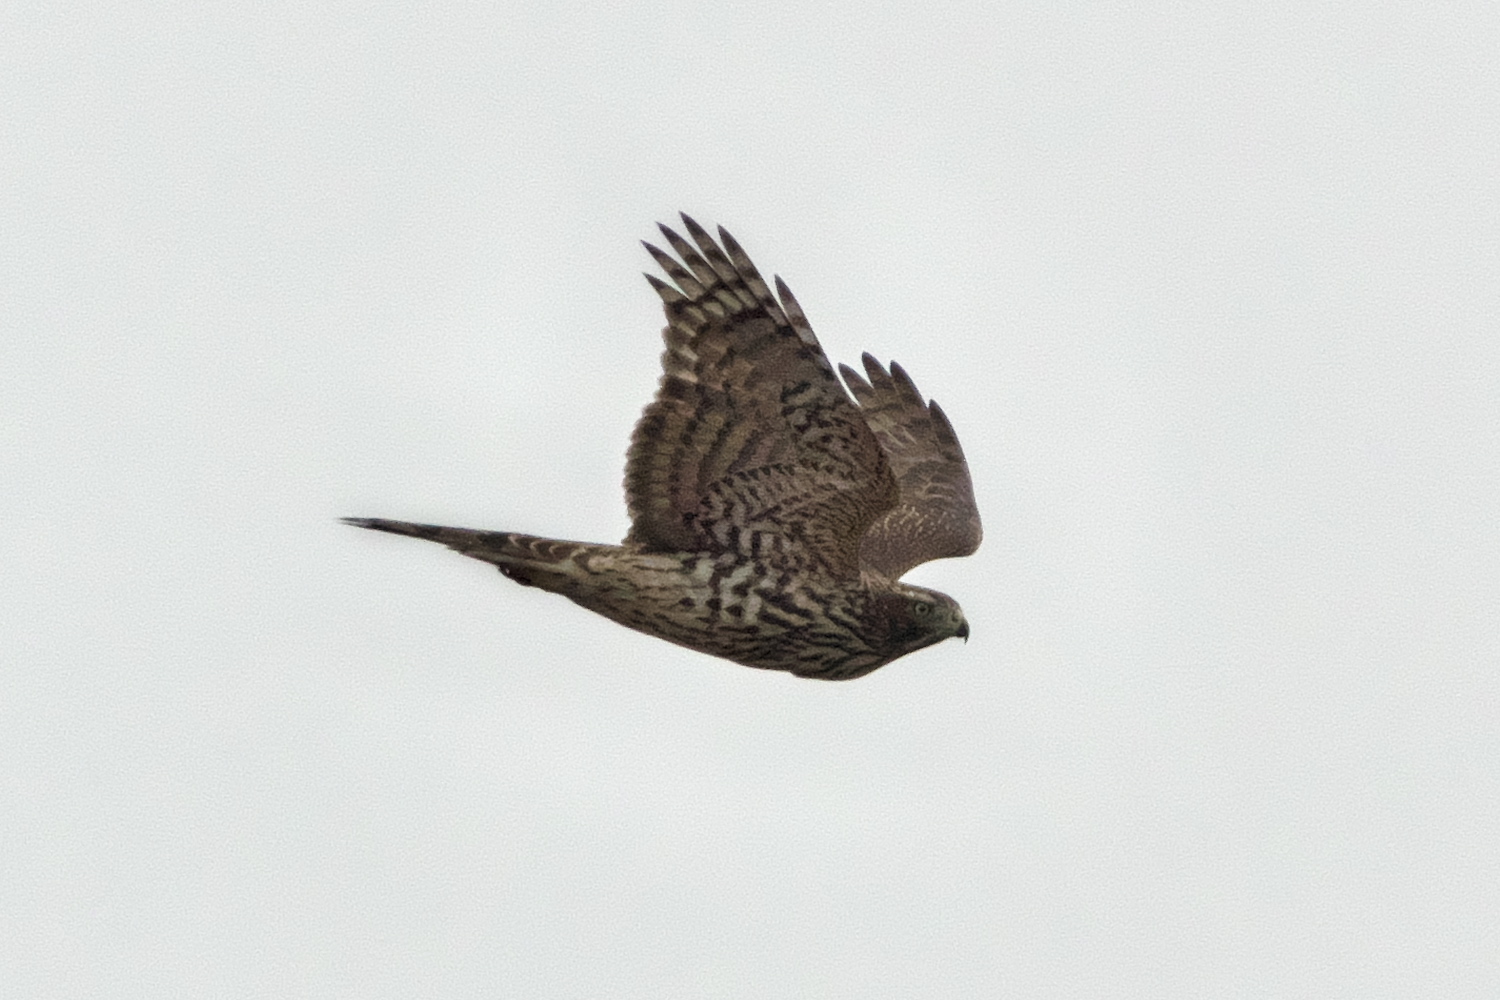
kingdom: Animalia
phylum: Chordata
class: Aves
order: Accipitriformes
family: Accipitridae
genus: Accipiter
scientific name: Accipiter gentilis
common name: Northern goshawk
